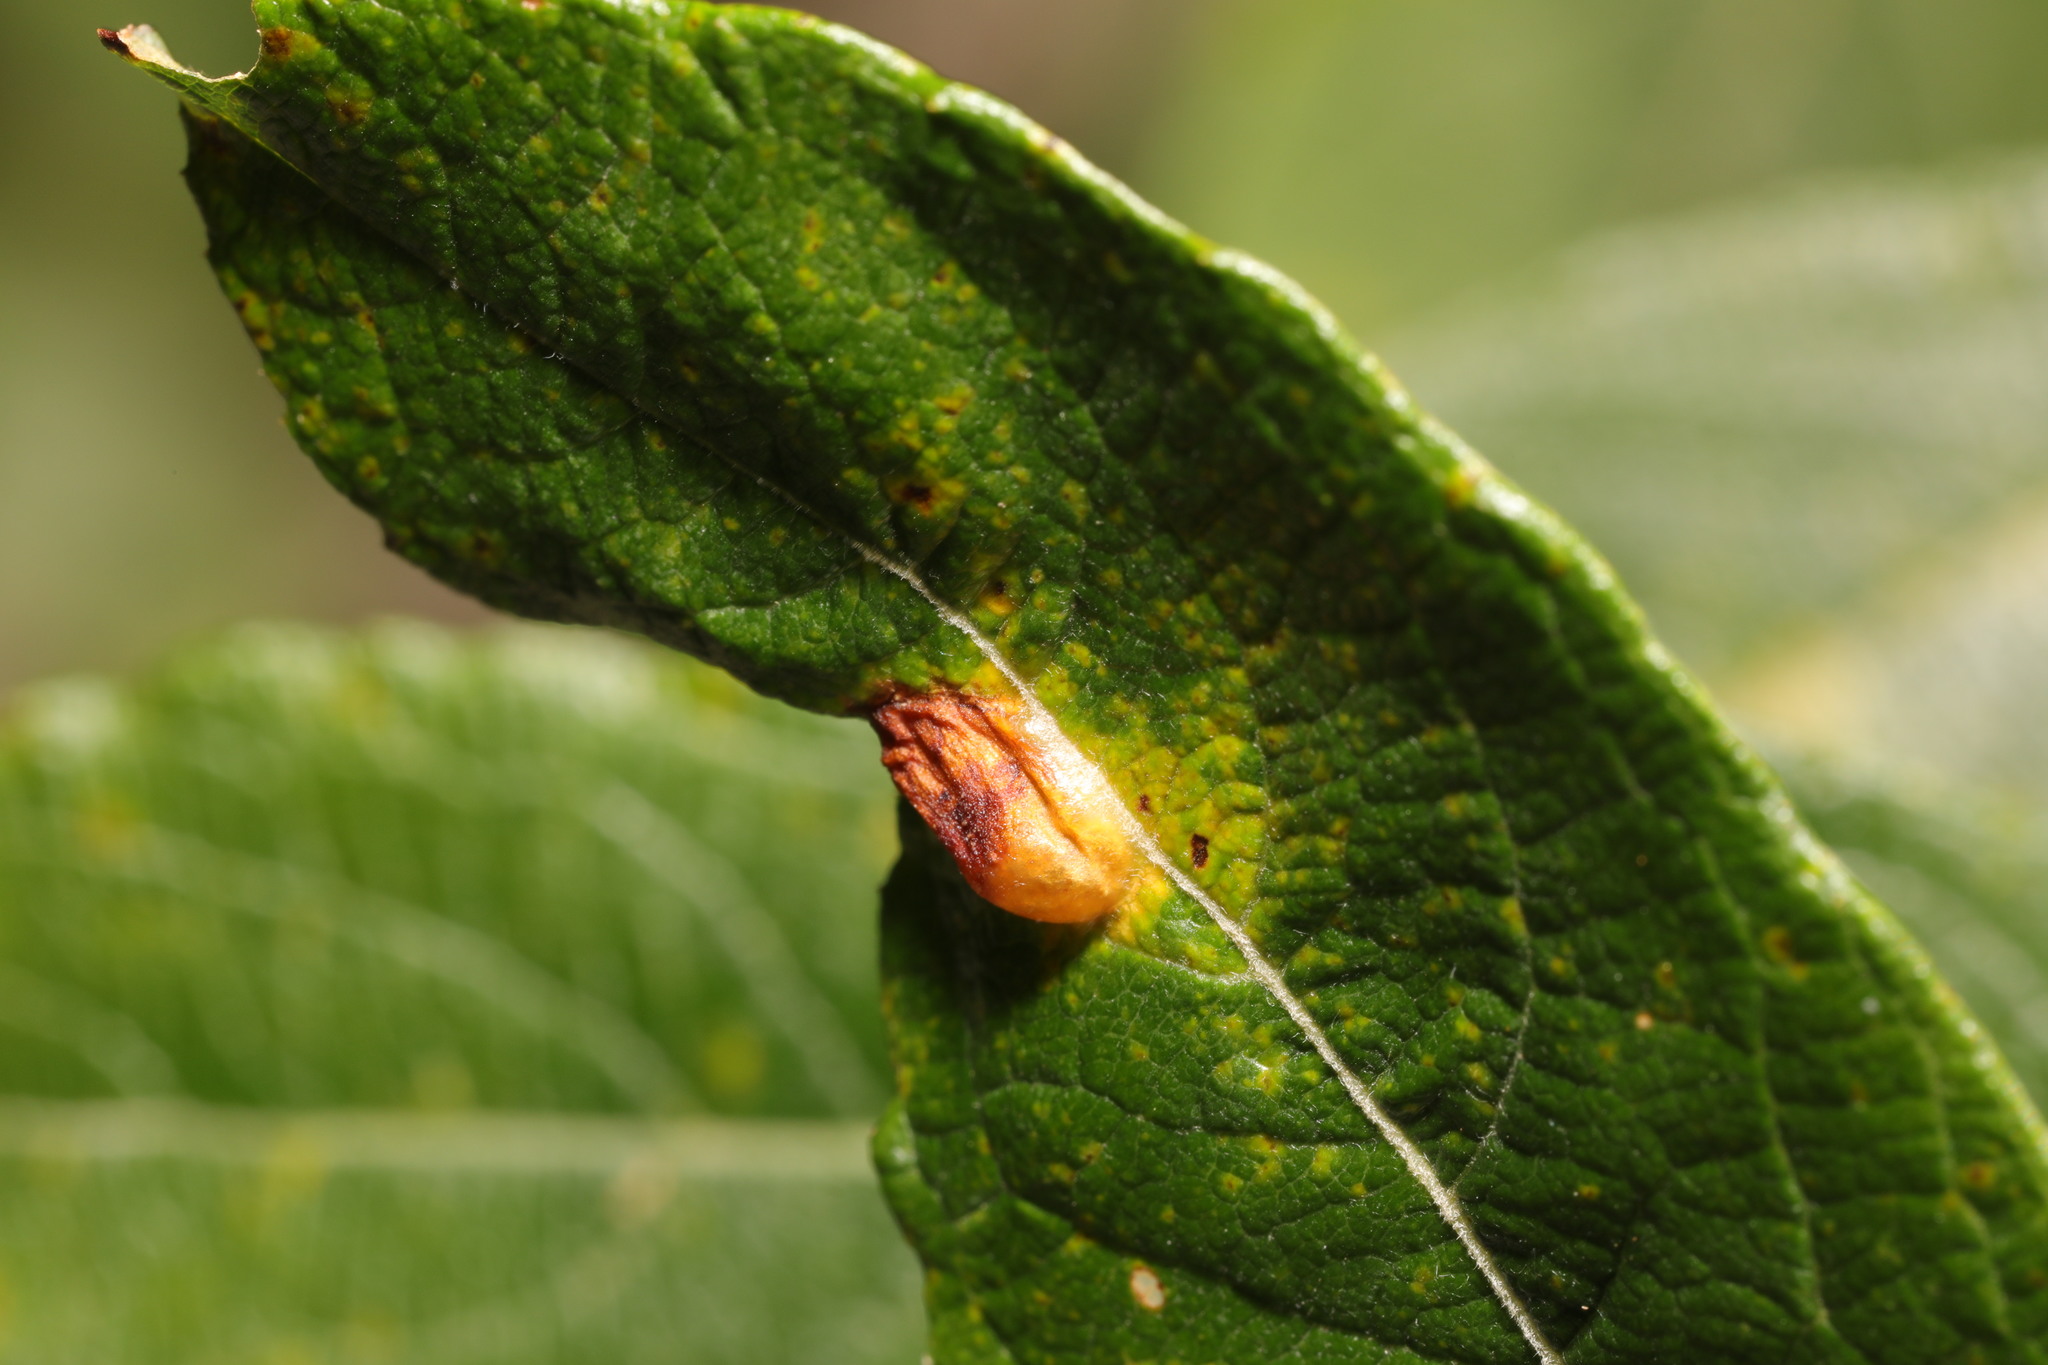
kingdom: Animalia
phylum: Arthropoda
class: Insecta
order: Hymenoptera
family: Tenthredinidae
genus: Pontania
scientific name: Pontania bridgmanii
